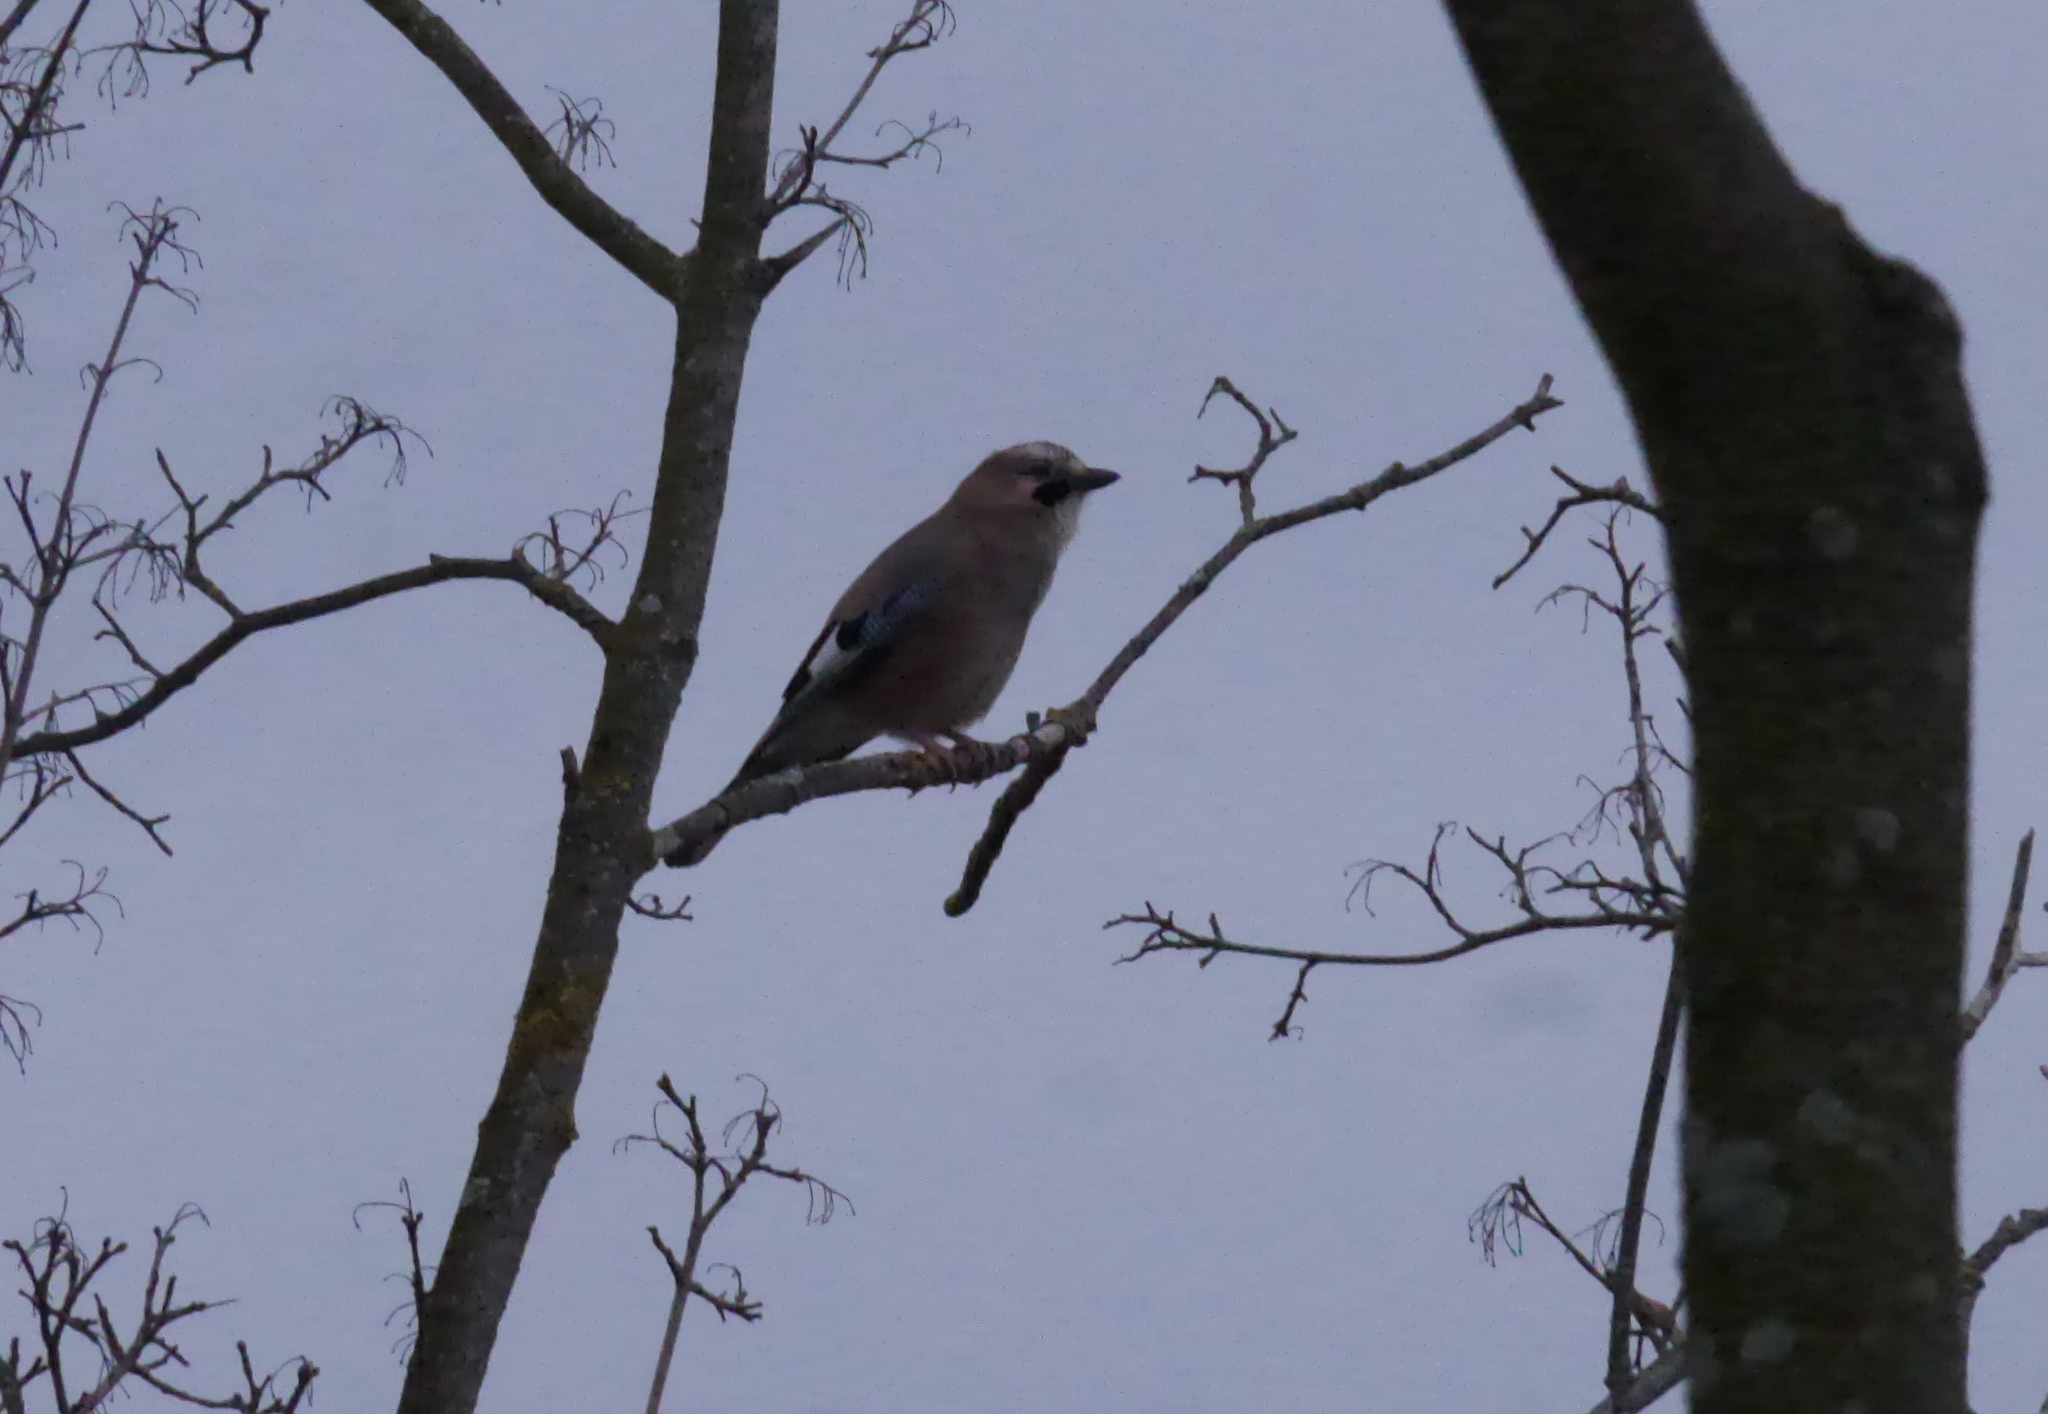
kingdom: Animalia
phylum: Chordata
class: Aves
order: Passeriformes
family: Corvidae
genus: Garrulus
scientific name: Garrulus glandarius
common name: Eurasian jay
